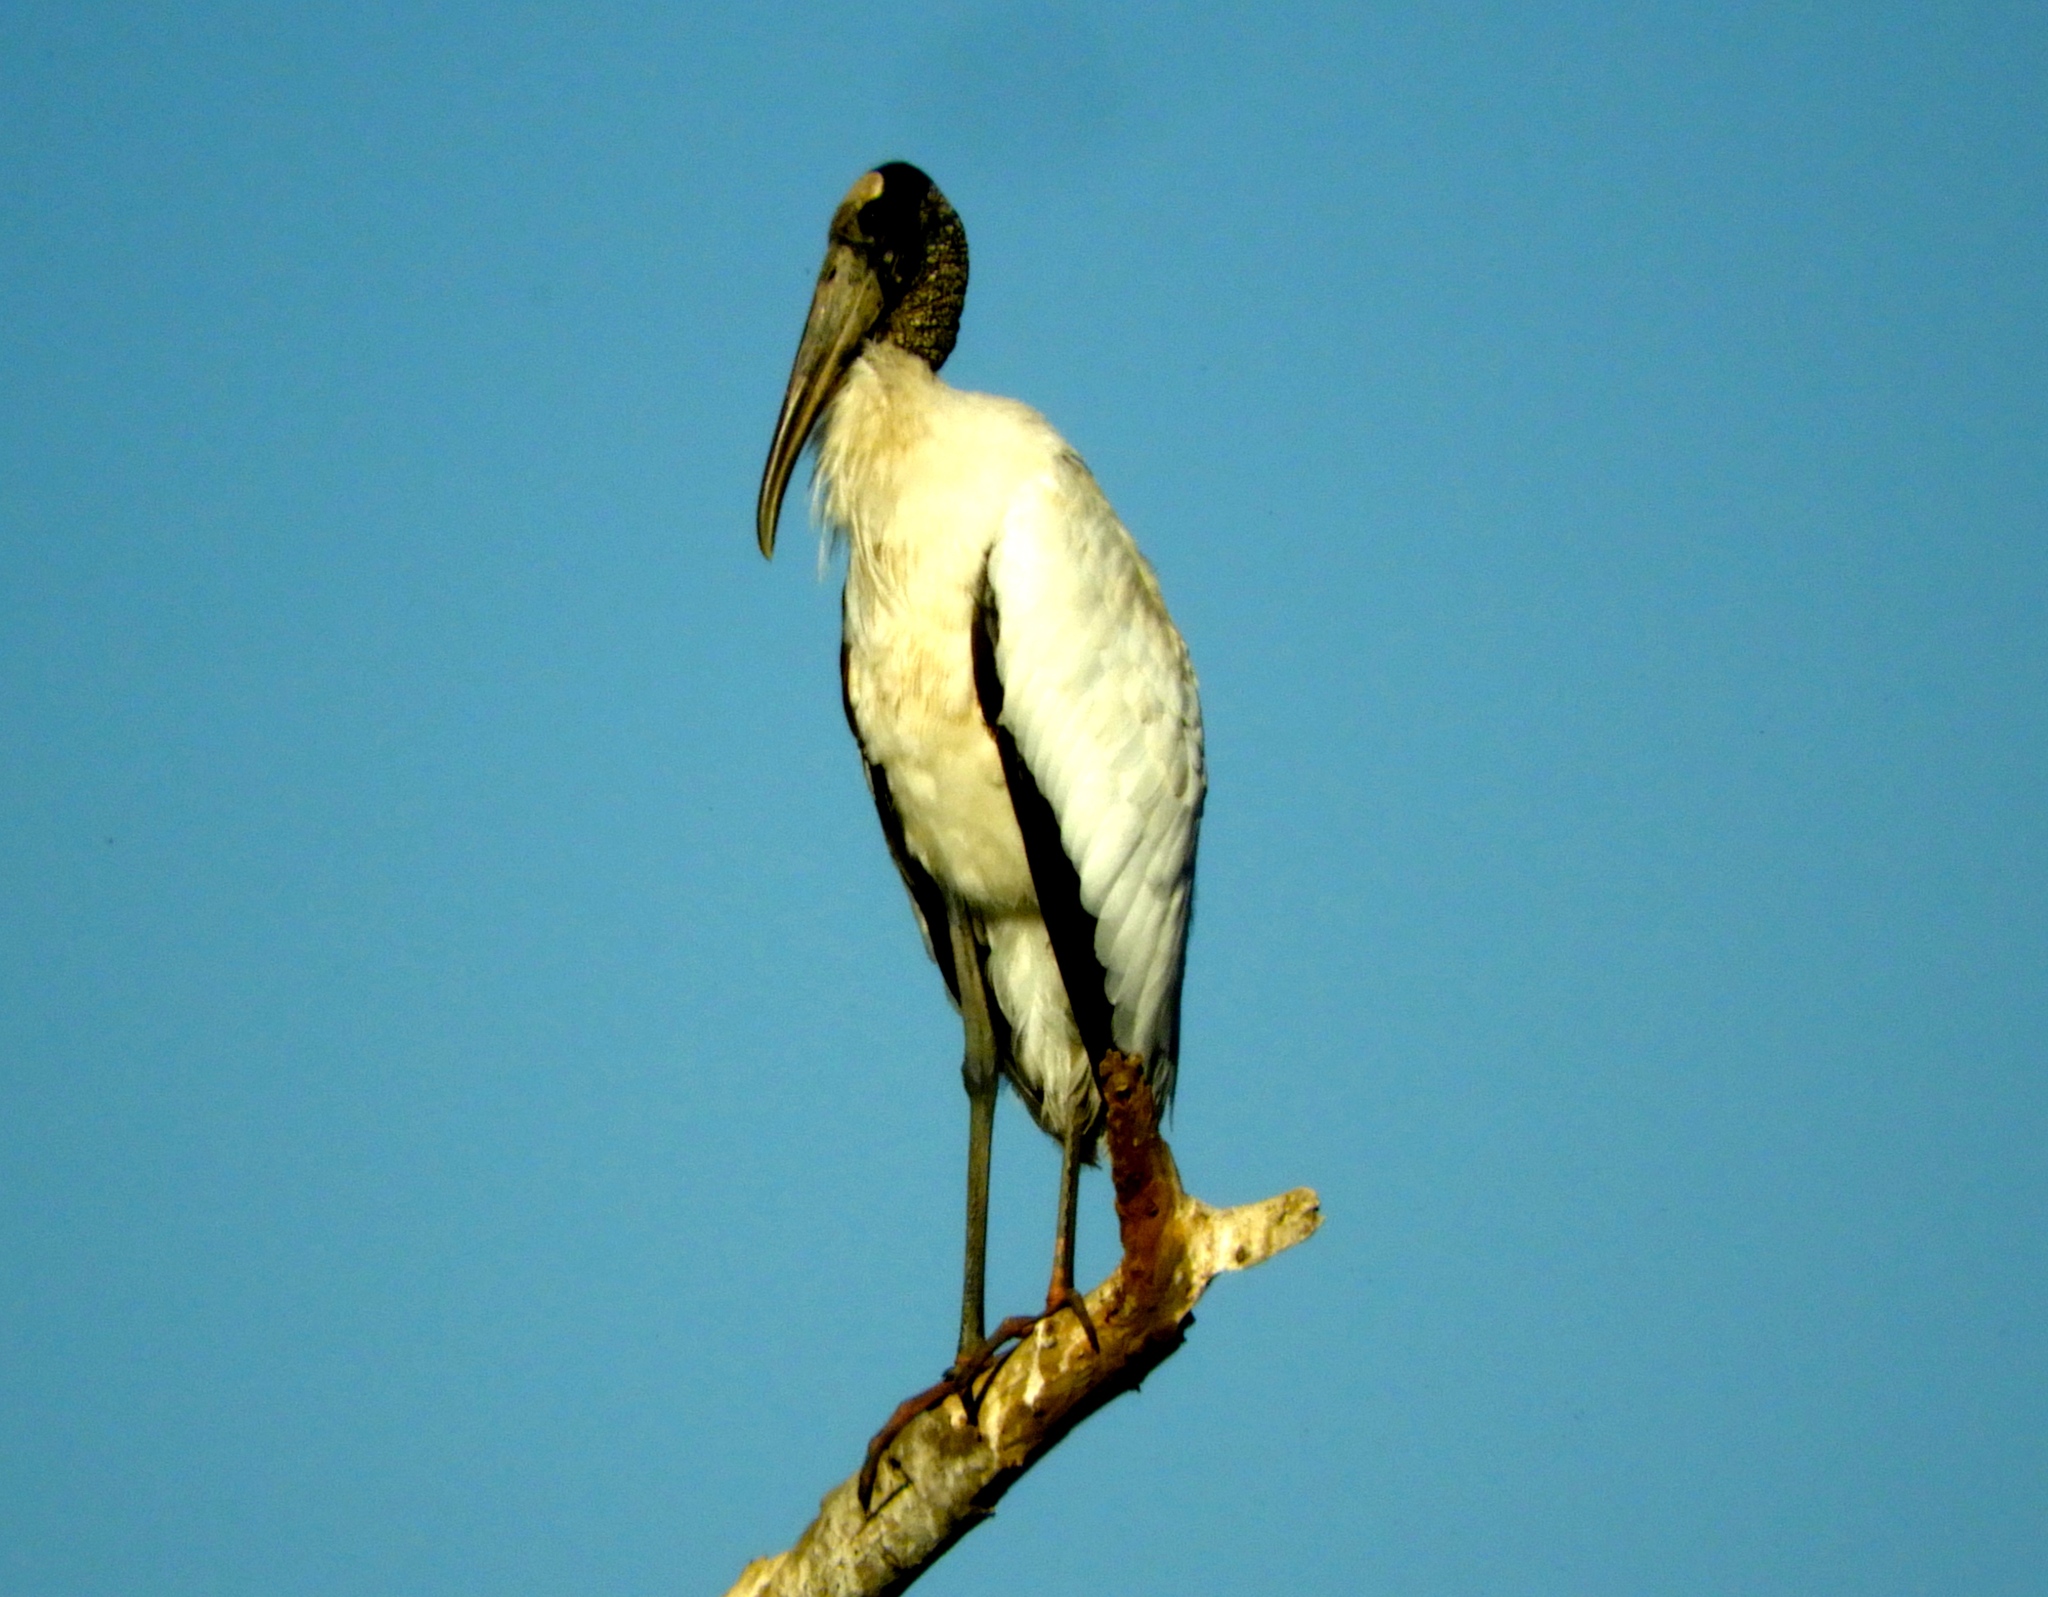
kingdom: Animalia
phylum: Chordata
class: Aves
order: Ciconiiformes
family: Ciconiidae
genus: Mycteria
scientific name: Mycteria americana
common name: Wood stork
